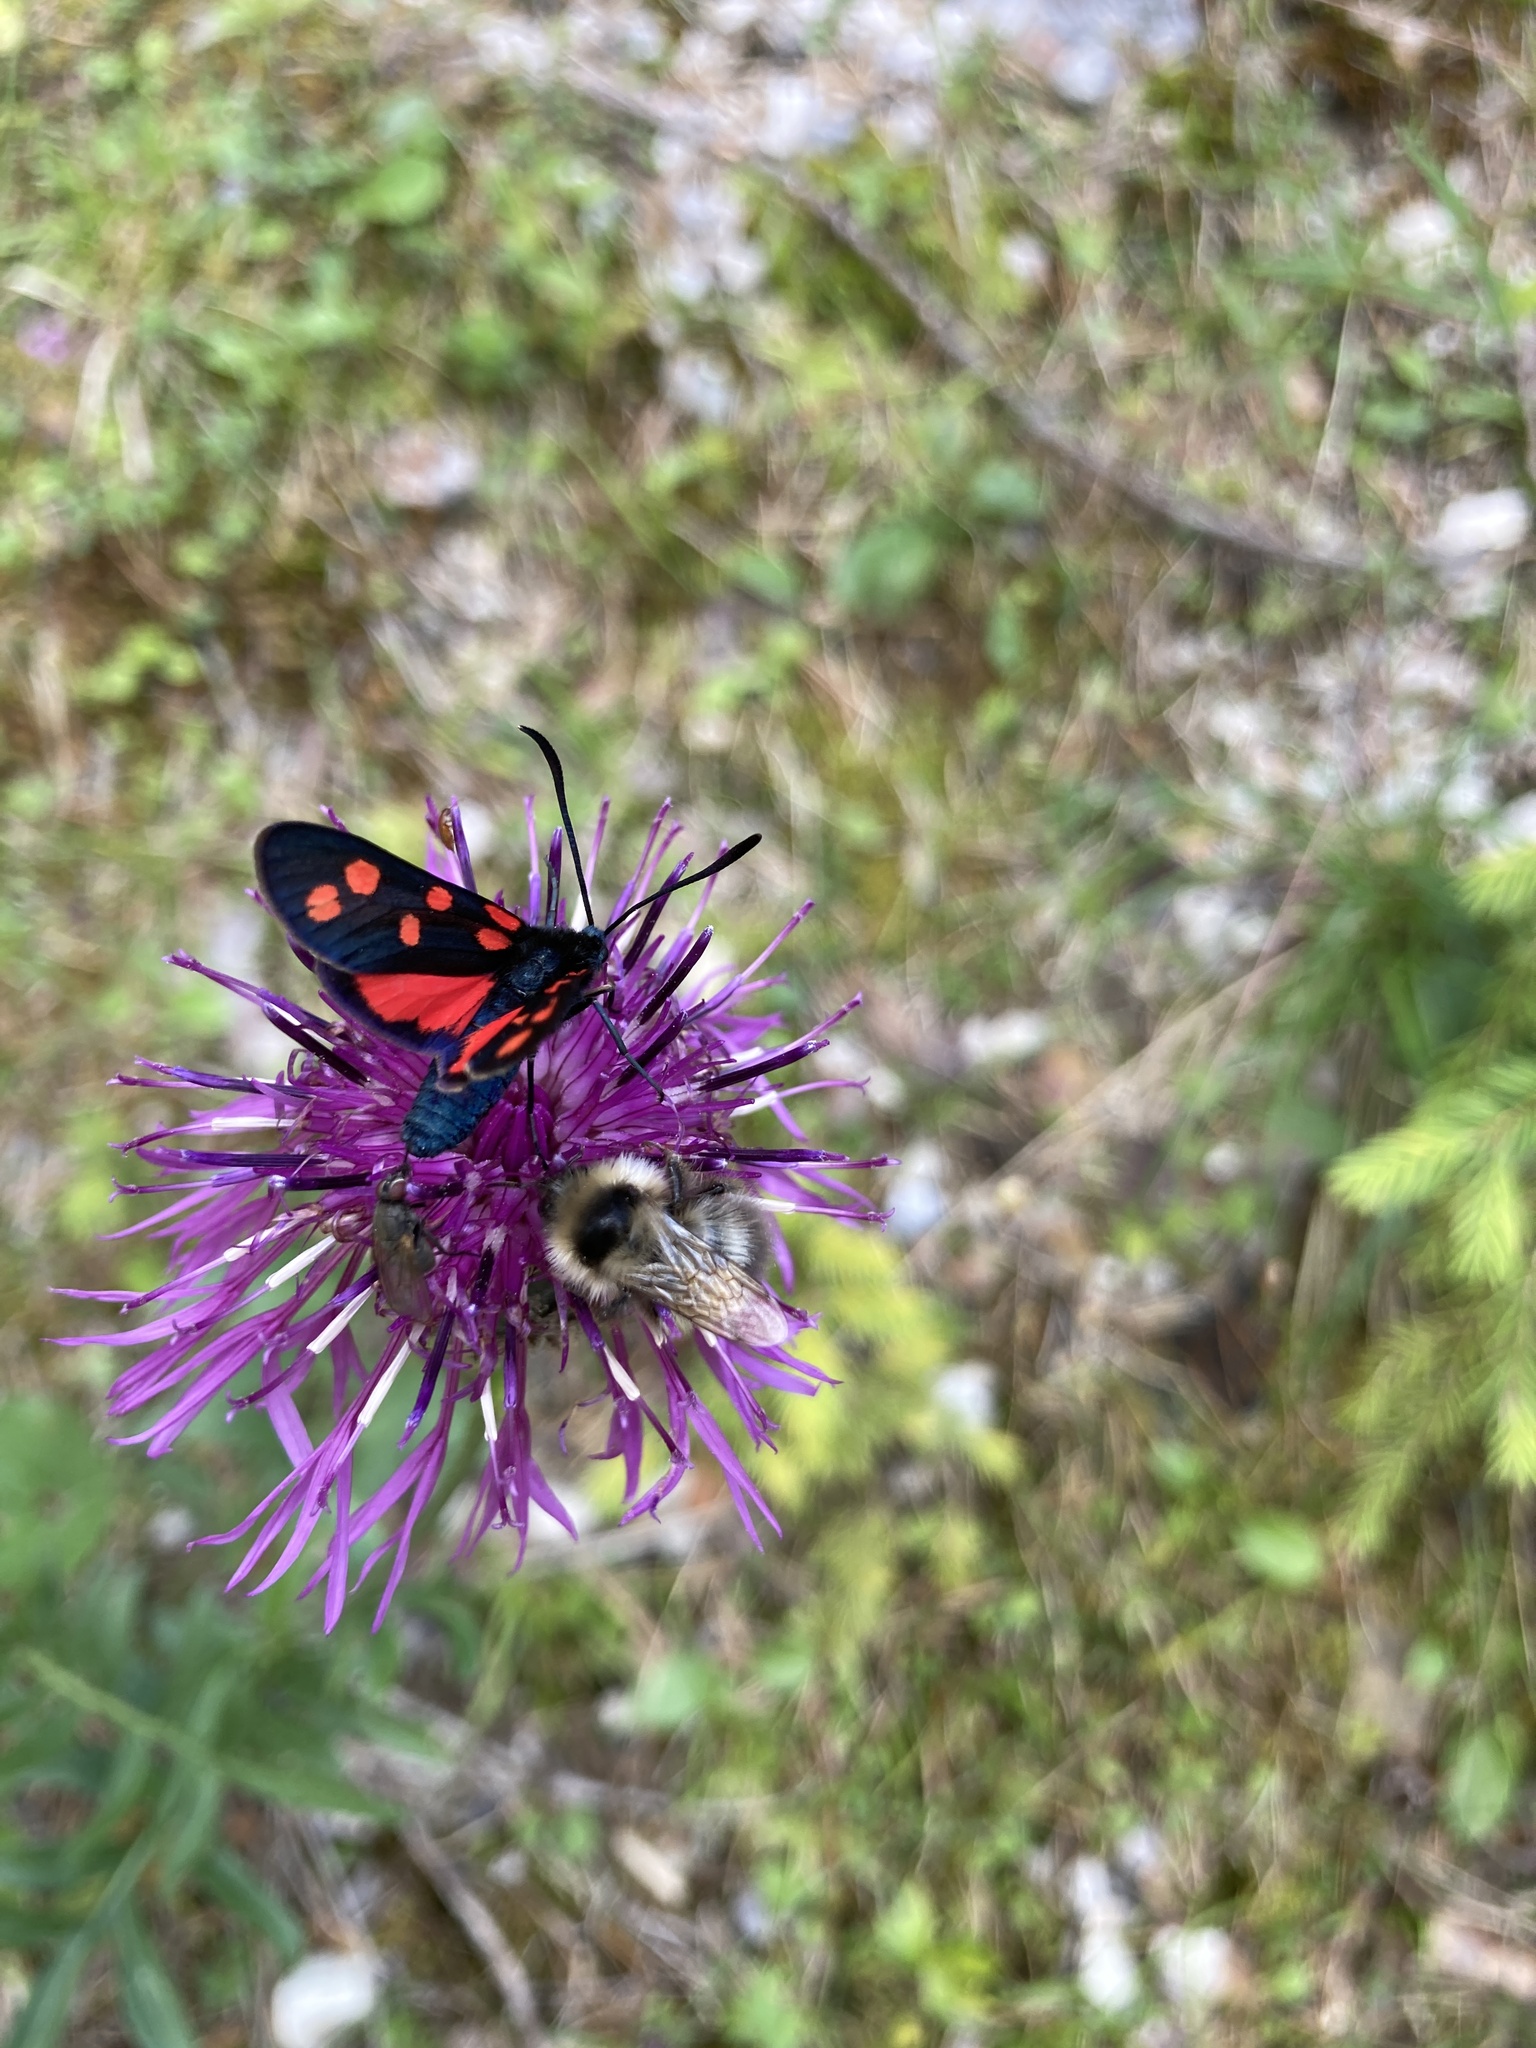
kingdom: Animalia
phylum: Arthropoda
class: Insecta
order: Lepidoptera
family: Zygaenidae
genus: Zygaena
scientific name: Zygaena transalpina
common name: Southern six spot burnet
